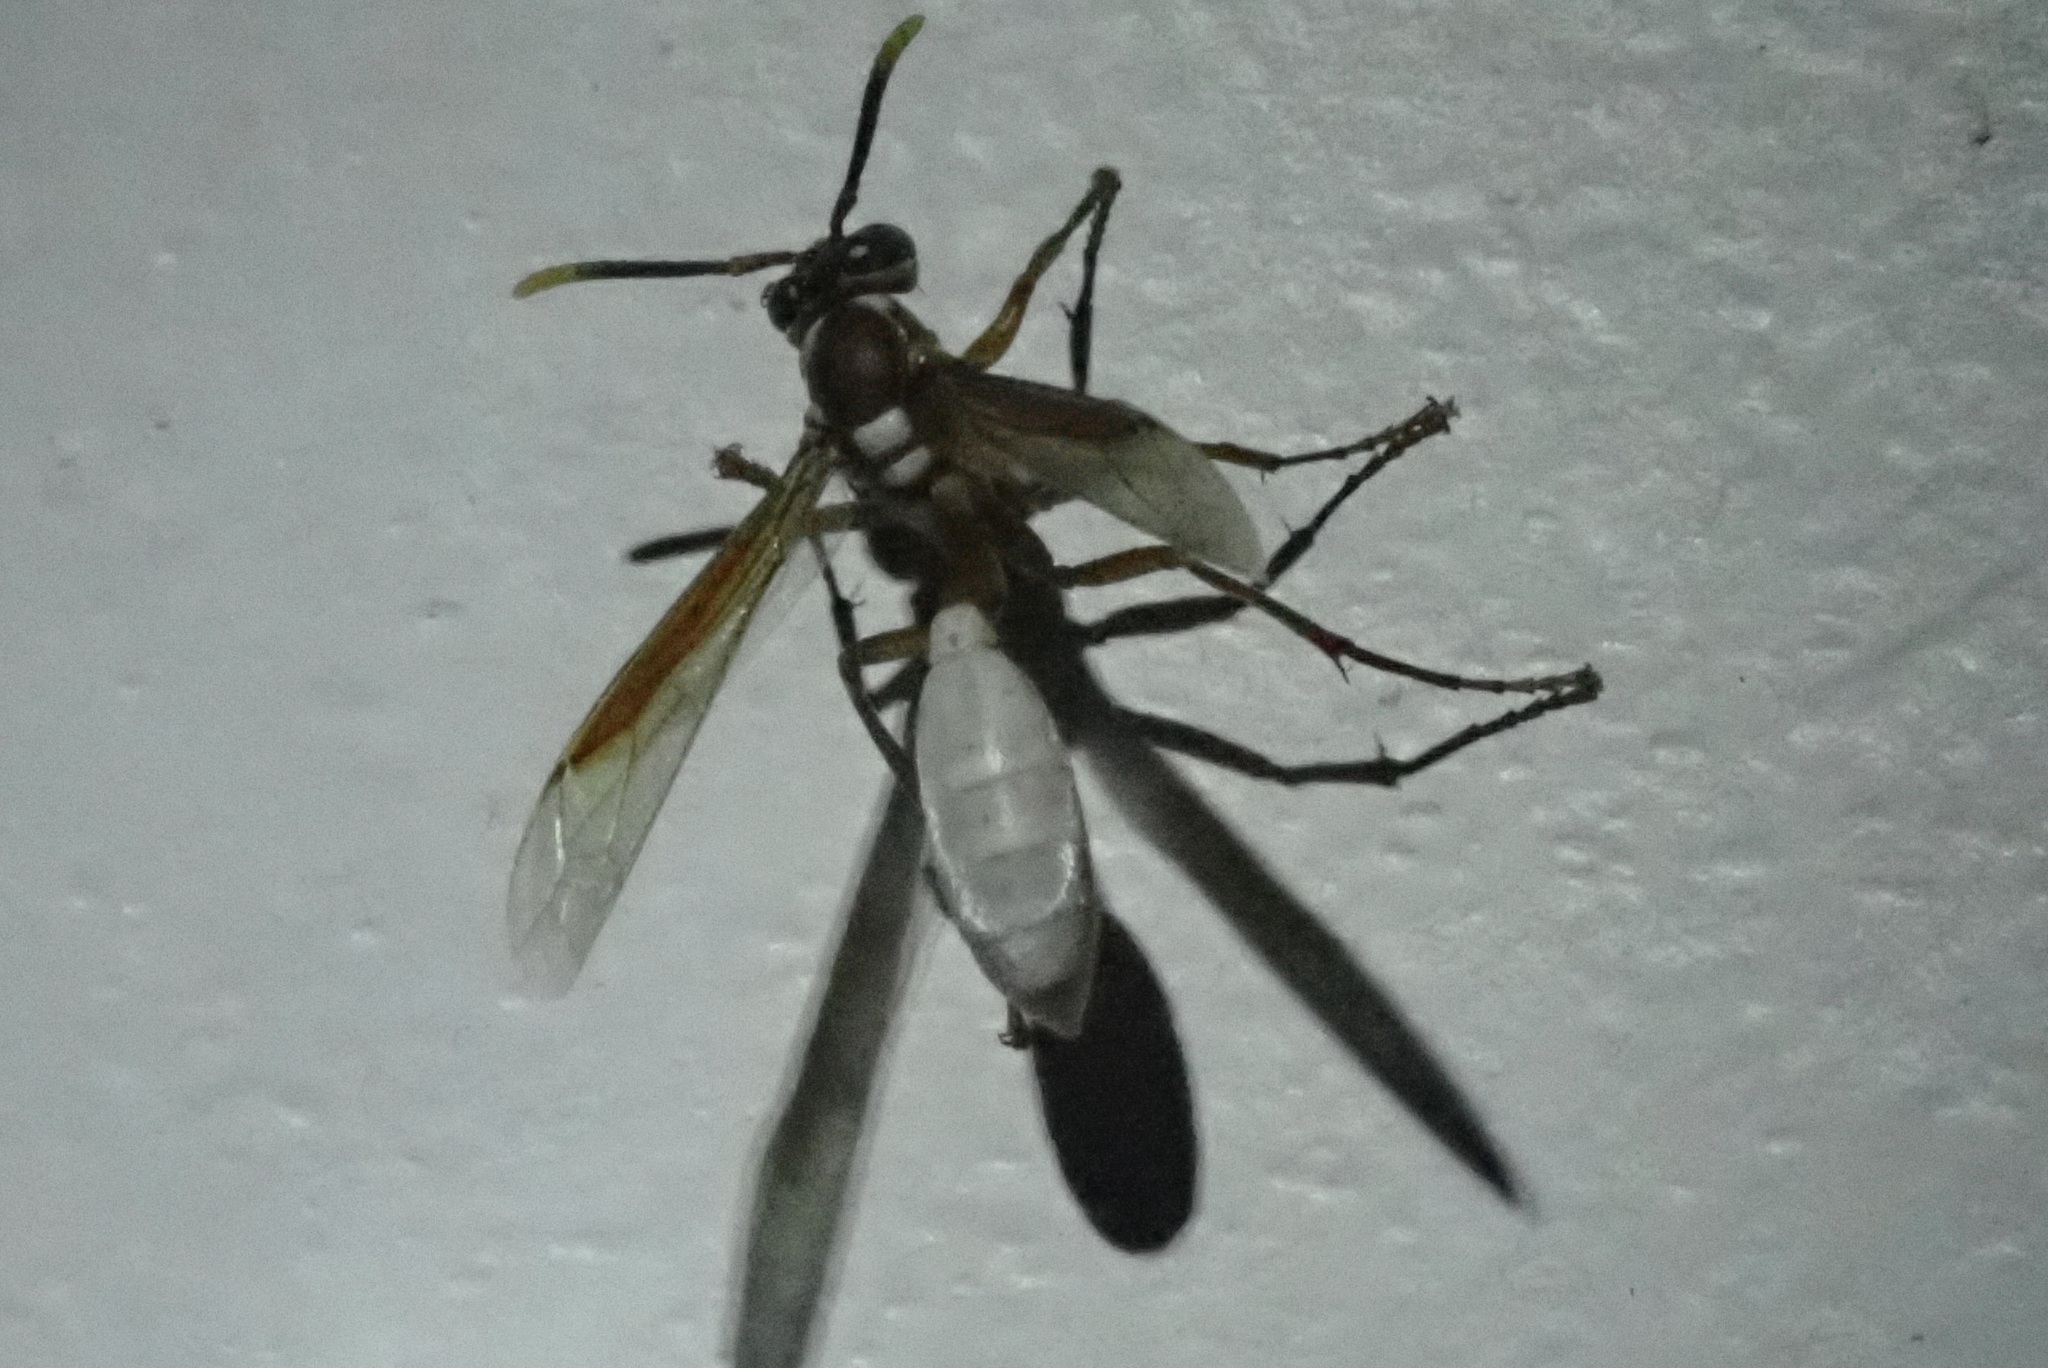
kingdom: Animalia
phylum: Arthropoda
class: Insecta
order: Hymenoptera
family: Vespidae
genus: Apoica
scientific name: Apoica gelida
